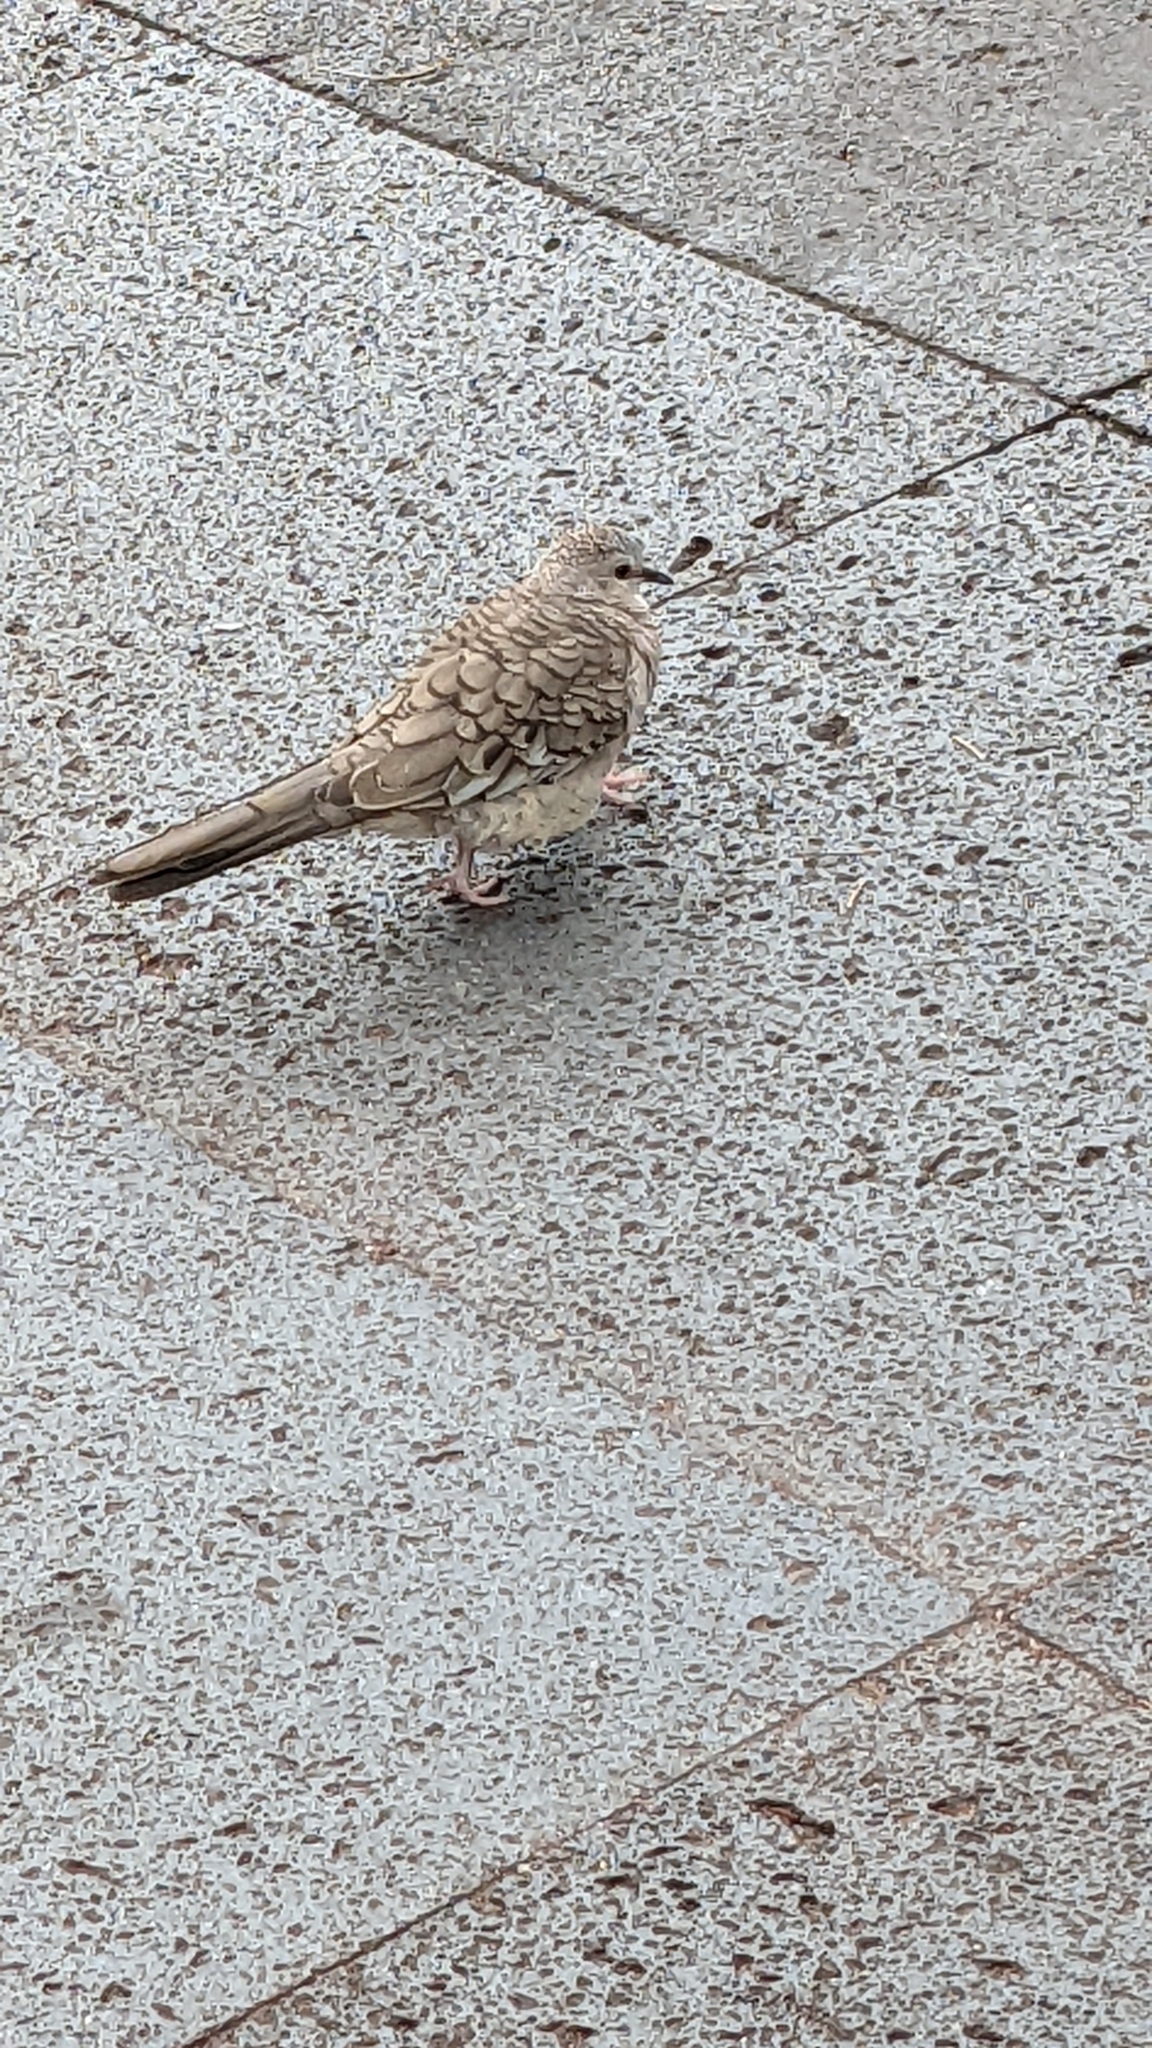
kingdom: Animalia
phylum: Chordata
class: Aves
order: Columbiformes
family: Columbidae
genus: Columbina
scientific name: Columbina inca
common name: Inca dove
